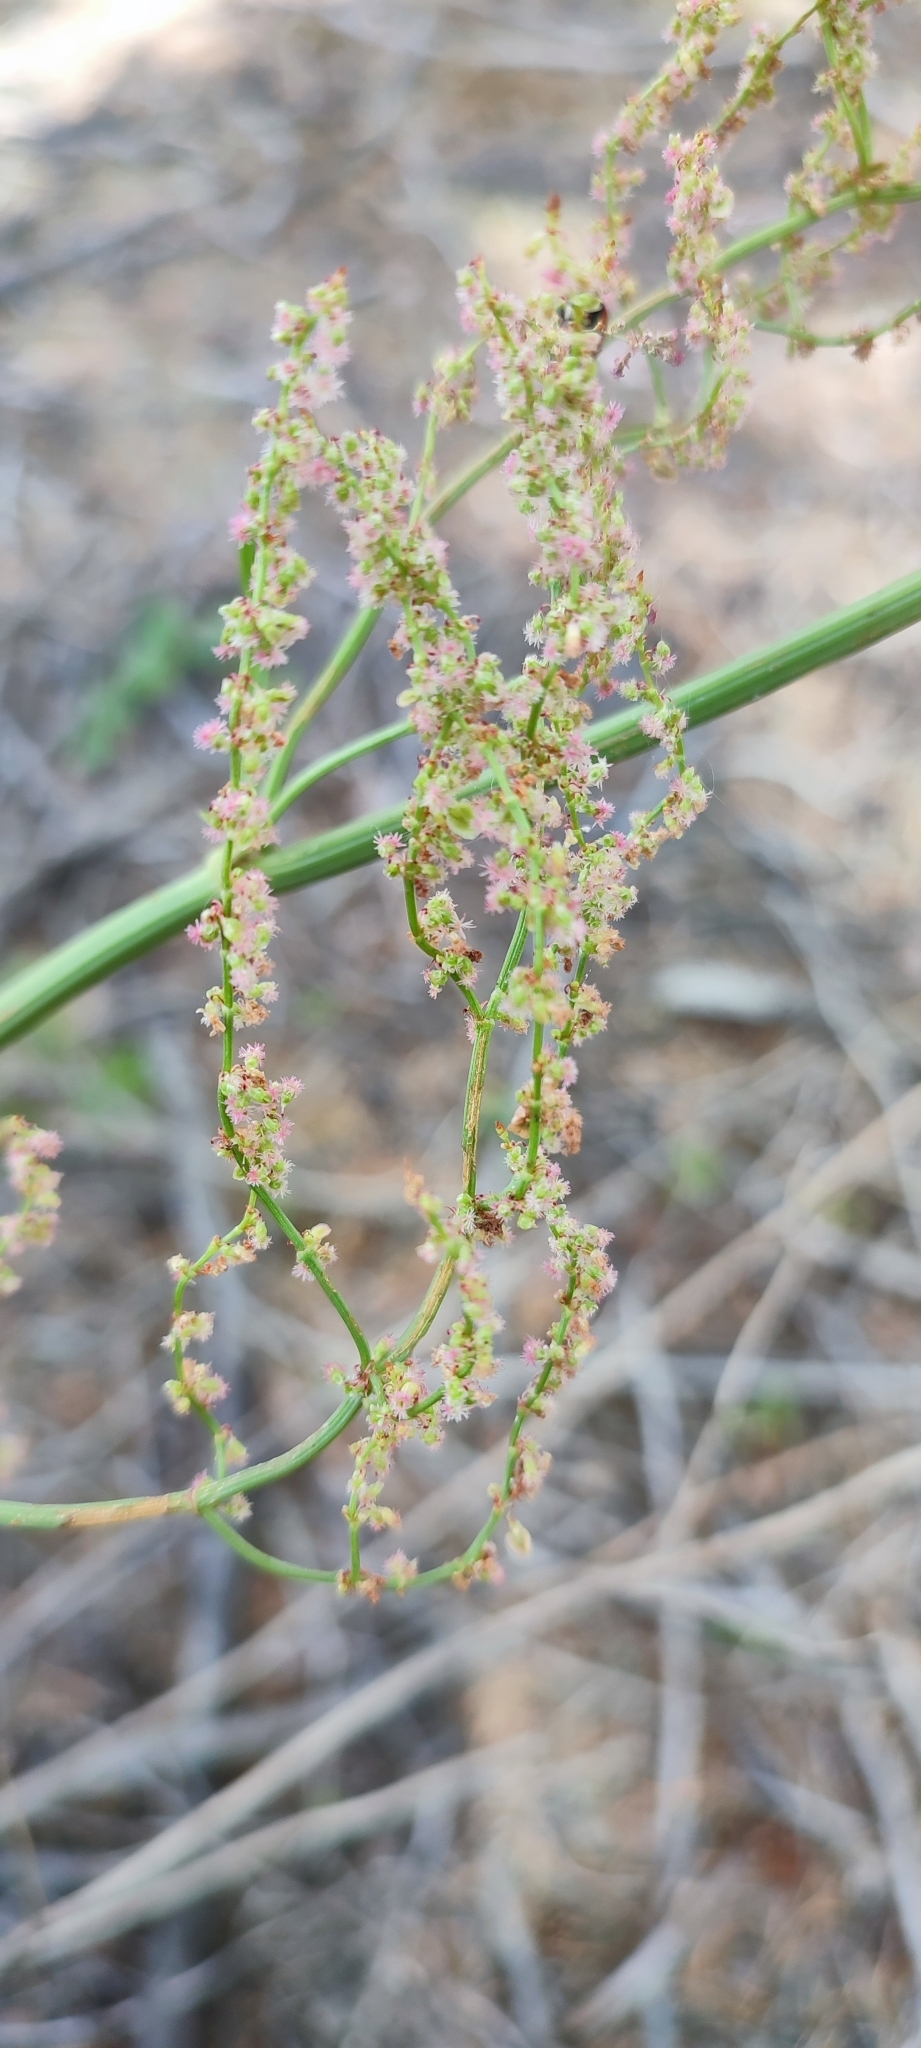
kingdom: Plantae
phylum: Tracheophyta
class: Magnoliopsida
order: Caryophyllales
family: Polygonaceae
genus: Rumex
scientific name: Rumex thyrsiflorus
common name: Garden sorrel
